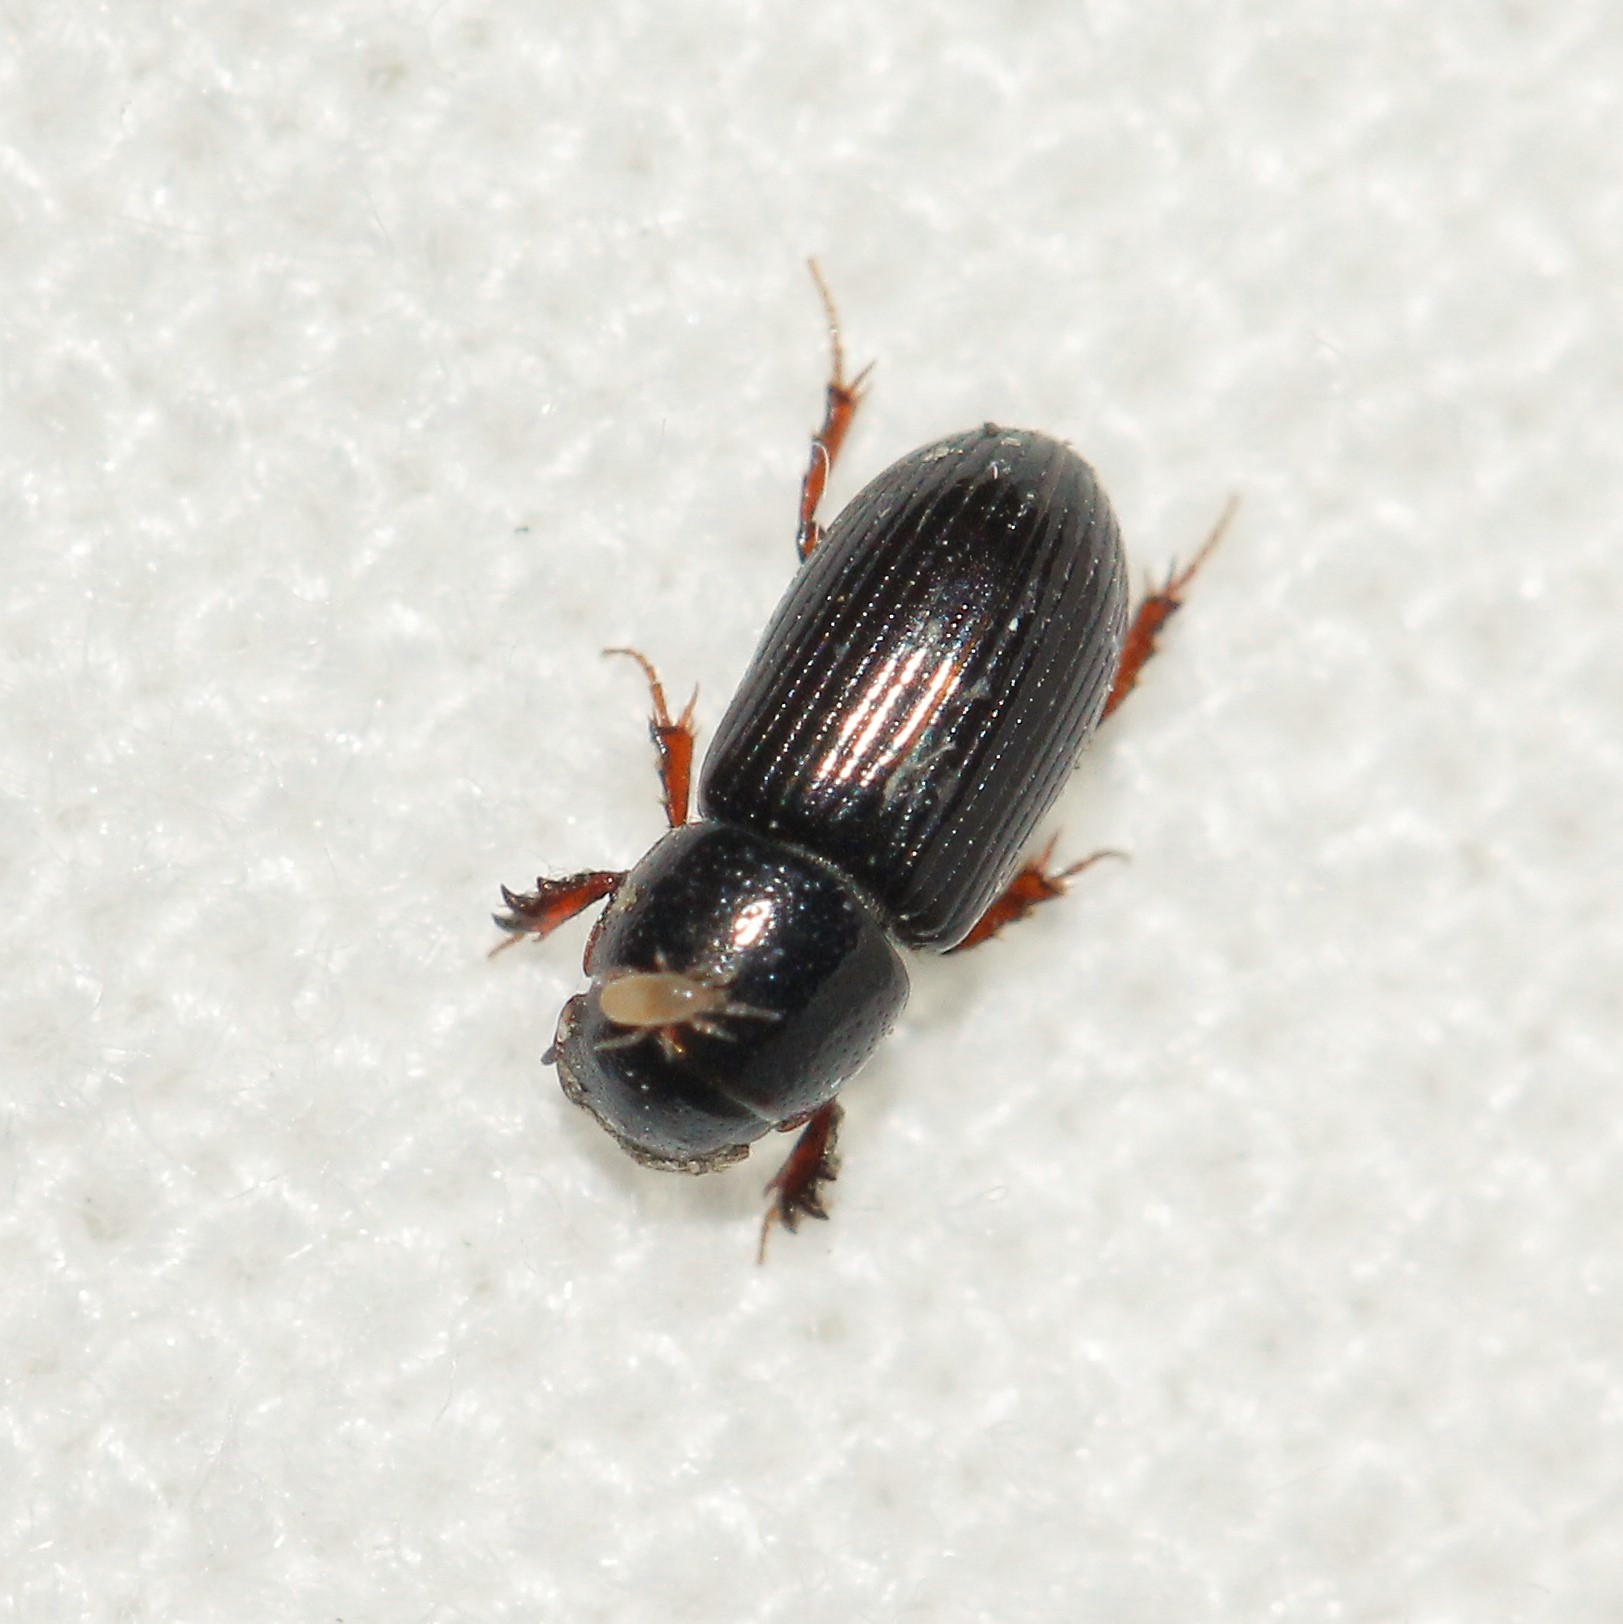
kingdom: Animalia
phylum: Arthropoda
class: Insecta
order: Coleoptera
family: Scarabaeidae
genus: Liothorax
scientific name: Liothorax kraatzi
